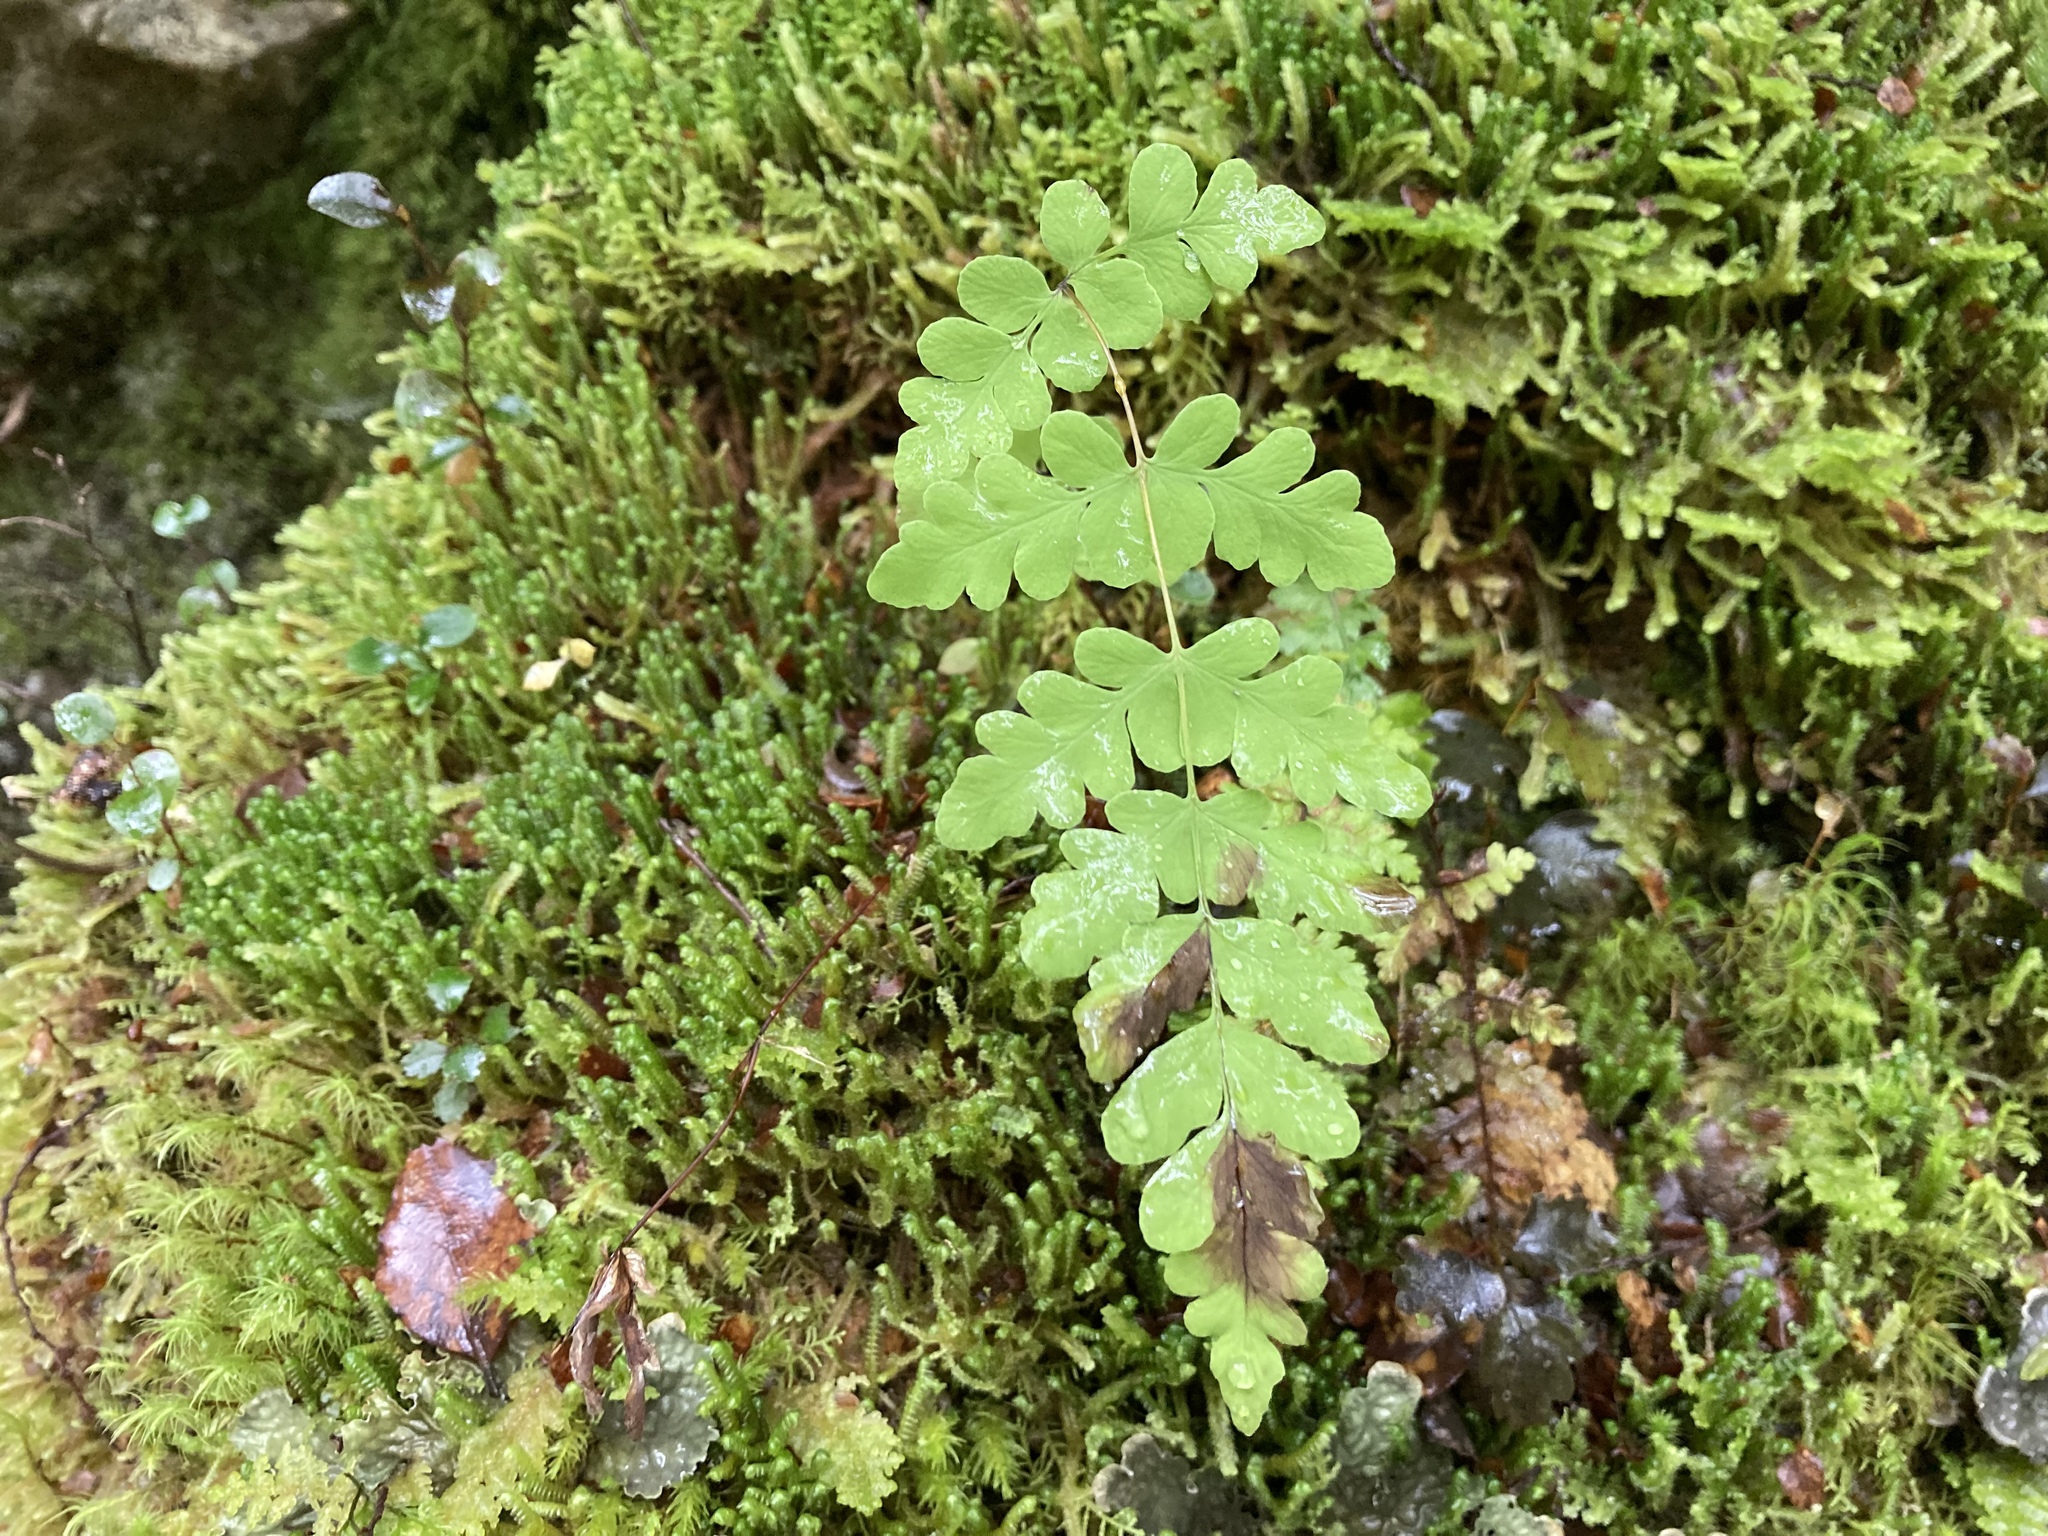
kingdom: Plantae
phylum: Tracheophyta
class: Polypodiopsida
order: Polypodiales
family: Dennstaedtiaceae
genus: Histiopteris
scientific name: Histiopteris incisa
